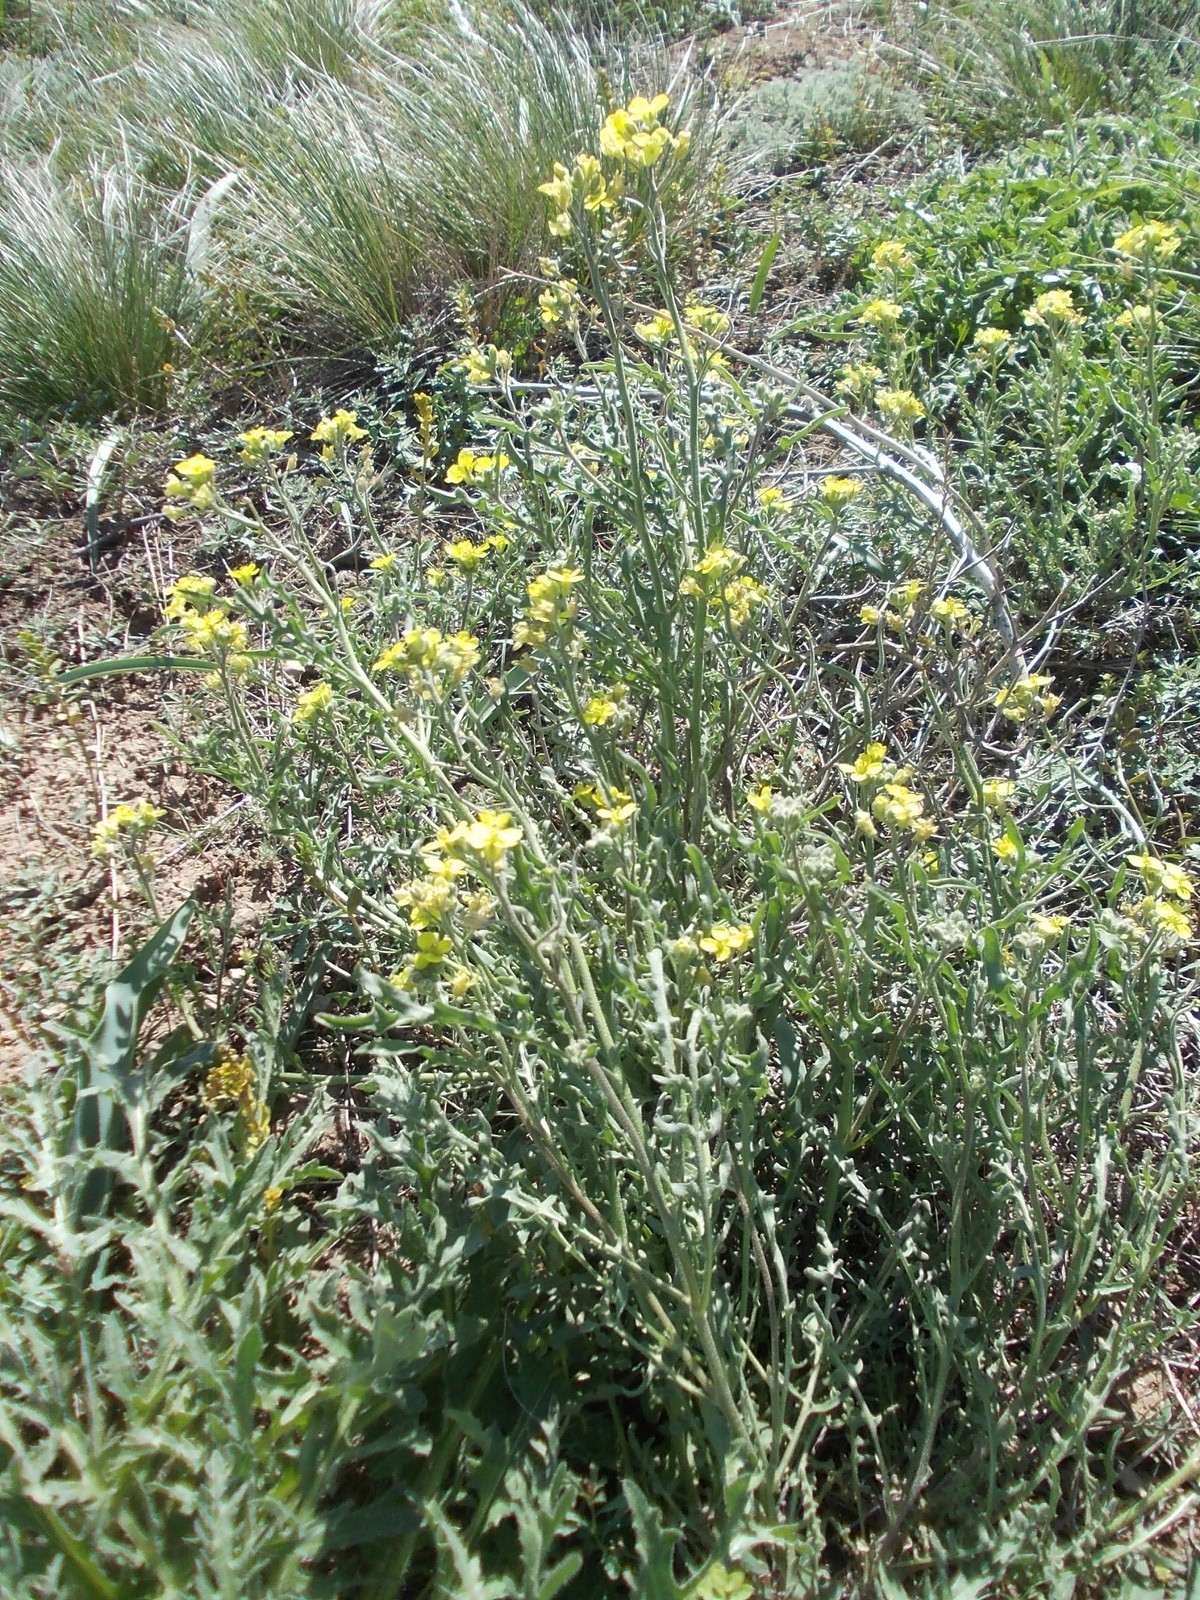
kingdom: Plantae
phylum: Tracheophyta
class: Magnoliopsida
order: Brassicales
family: Brassicaceae
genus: Sterigmostemum
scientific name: Sterigmostemum caspicum
